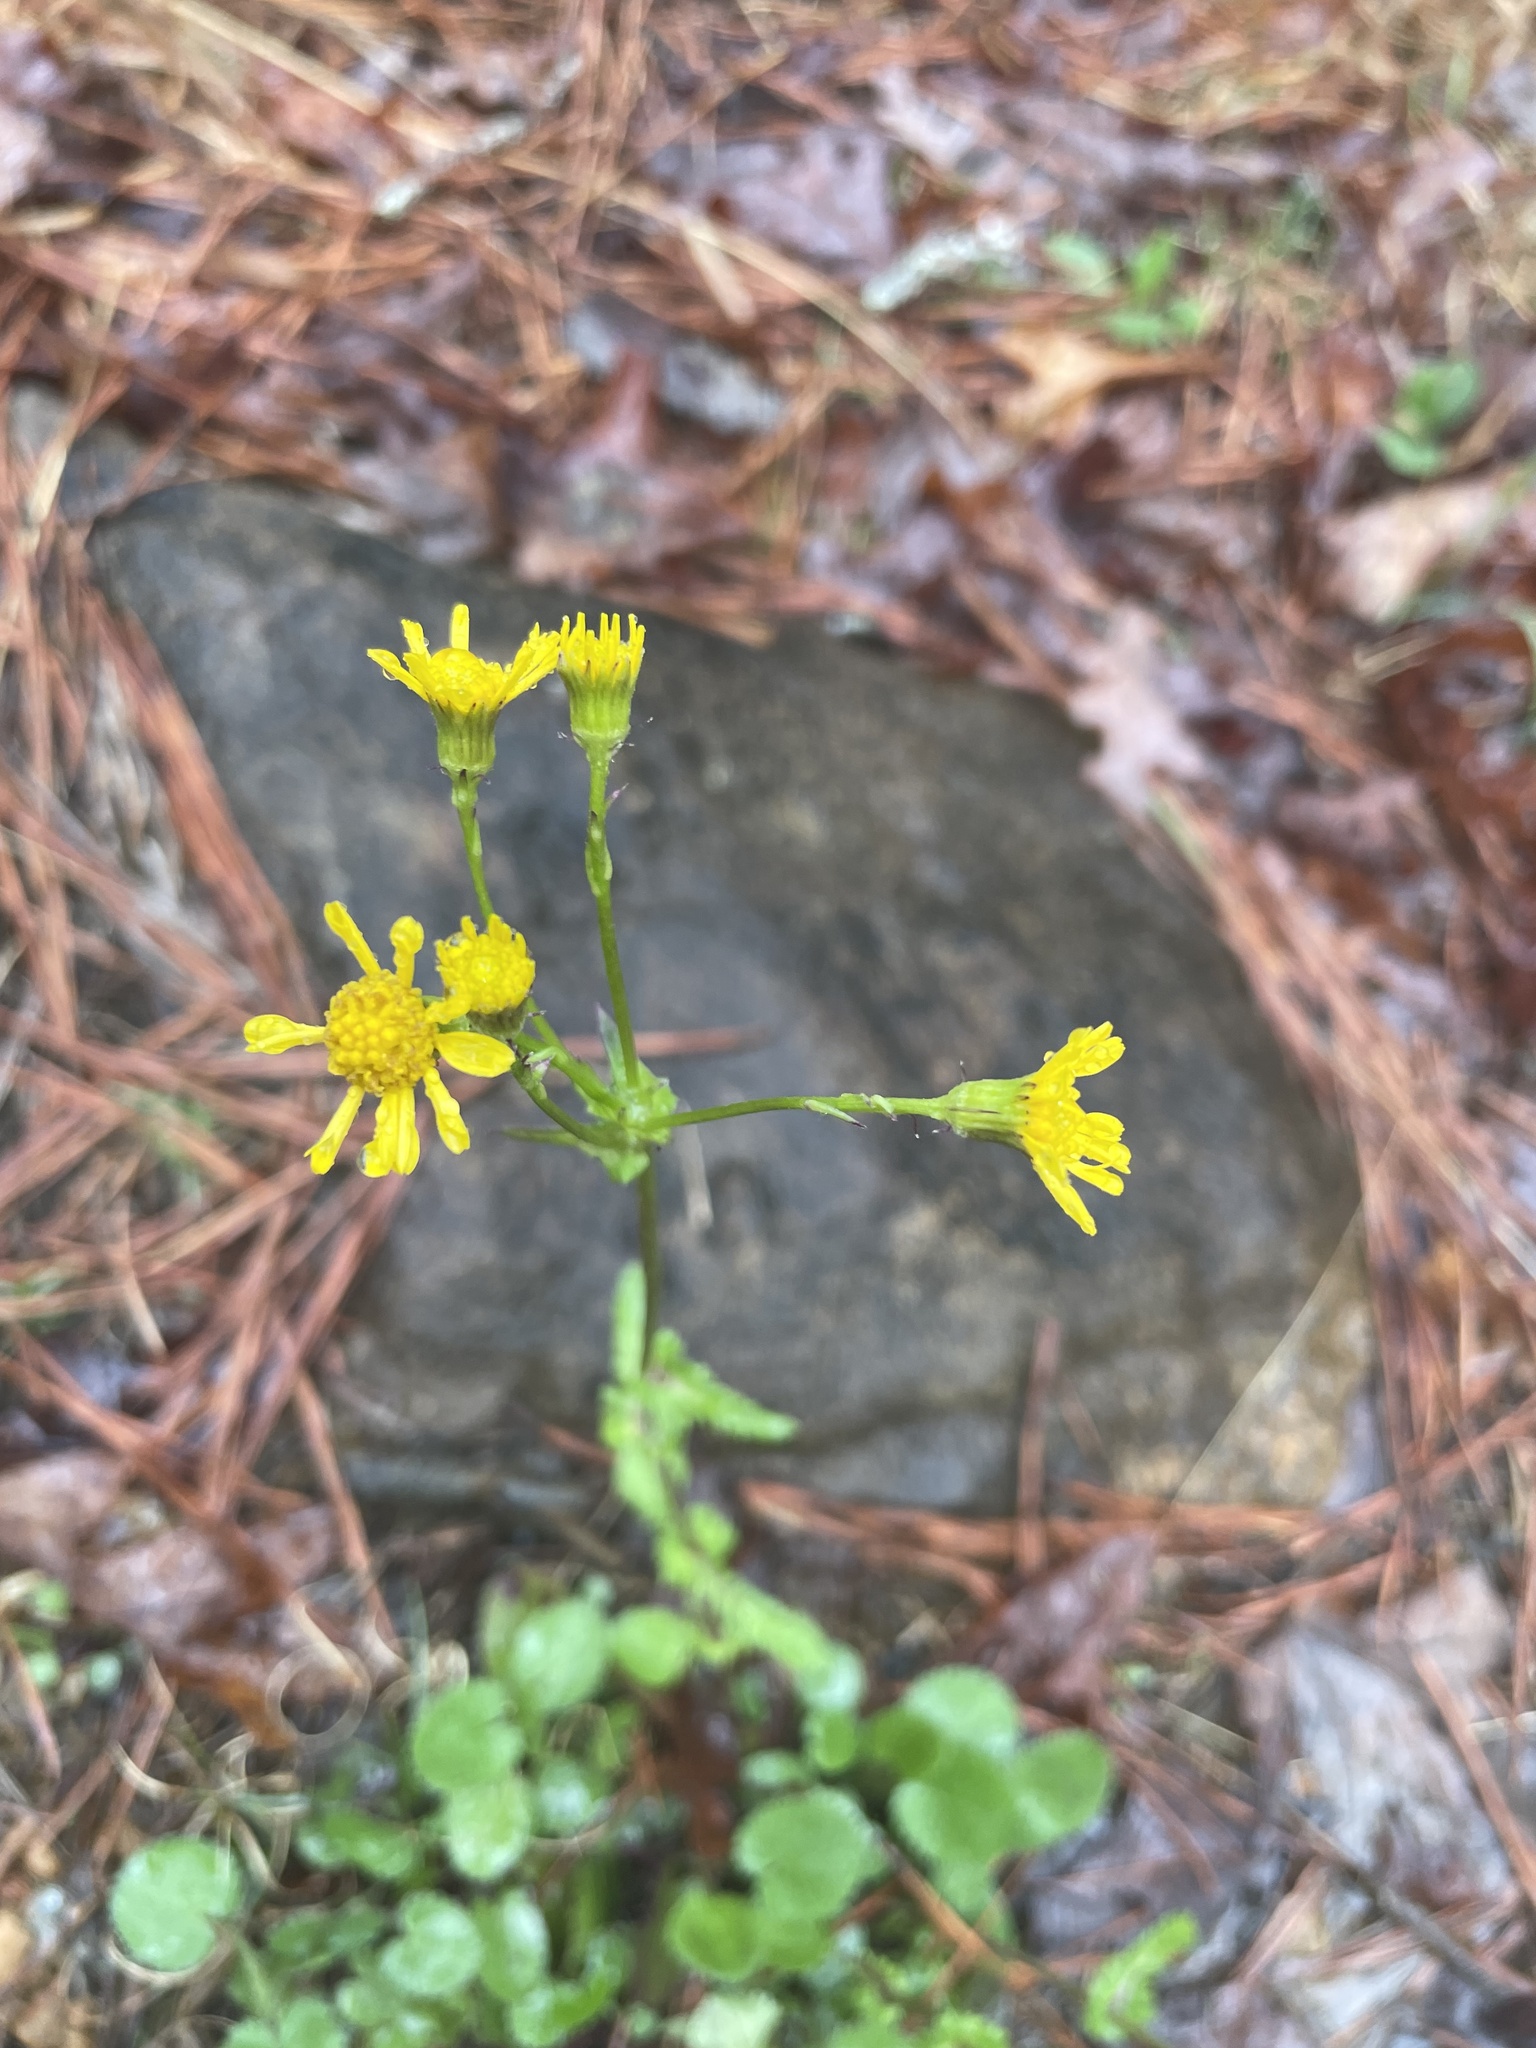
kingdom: Plantae
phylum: Tracheophyta
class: Magnoliopsida
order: Asterales
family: Asteraceae
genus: Packera
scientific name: Packera serpenticola
